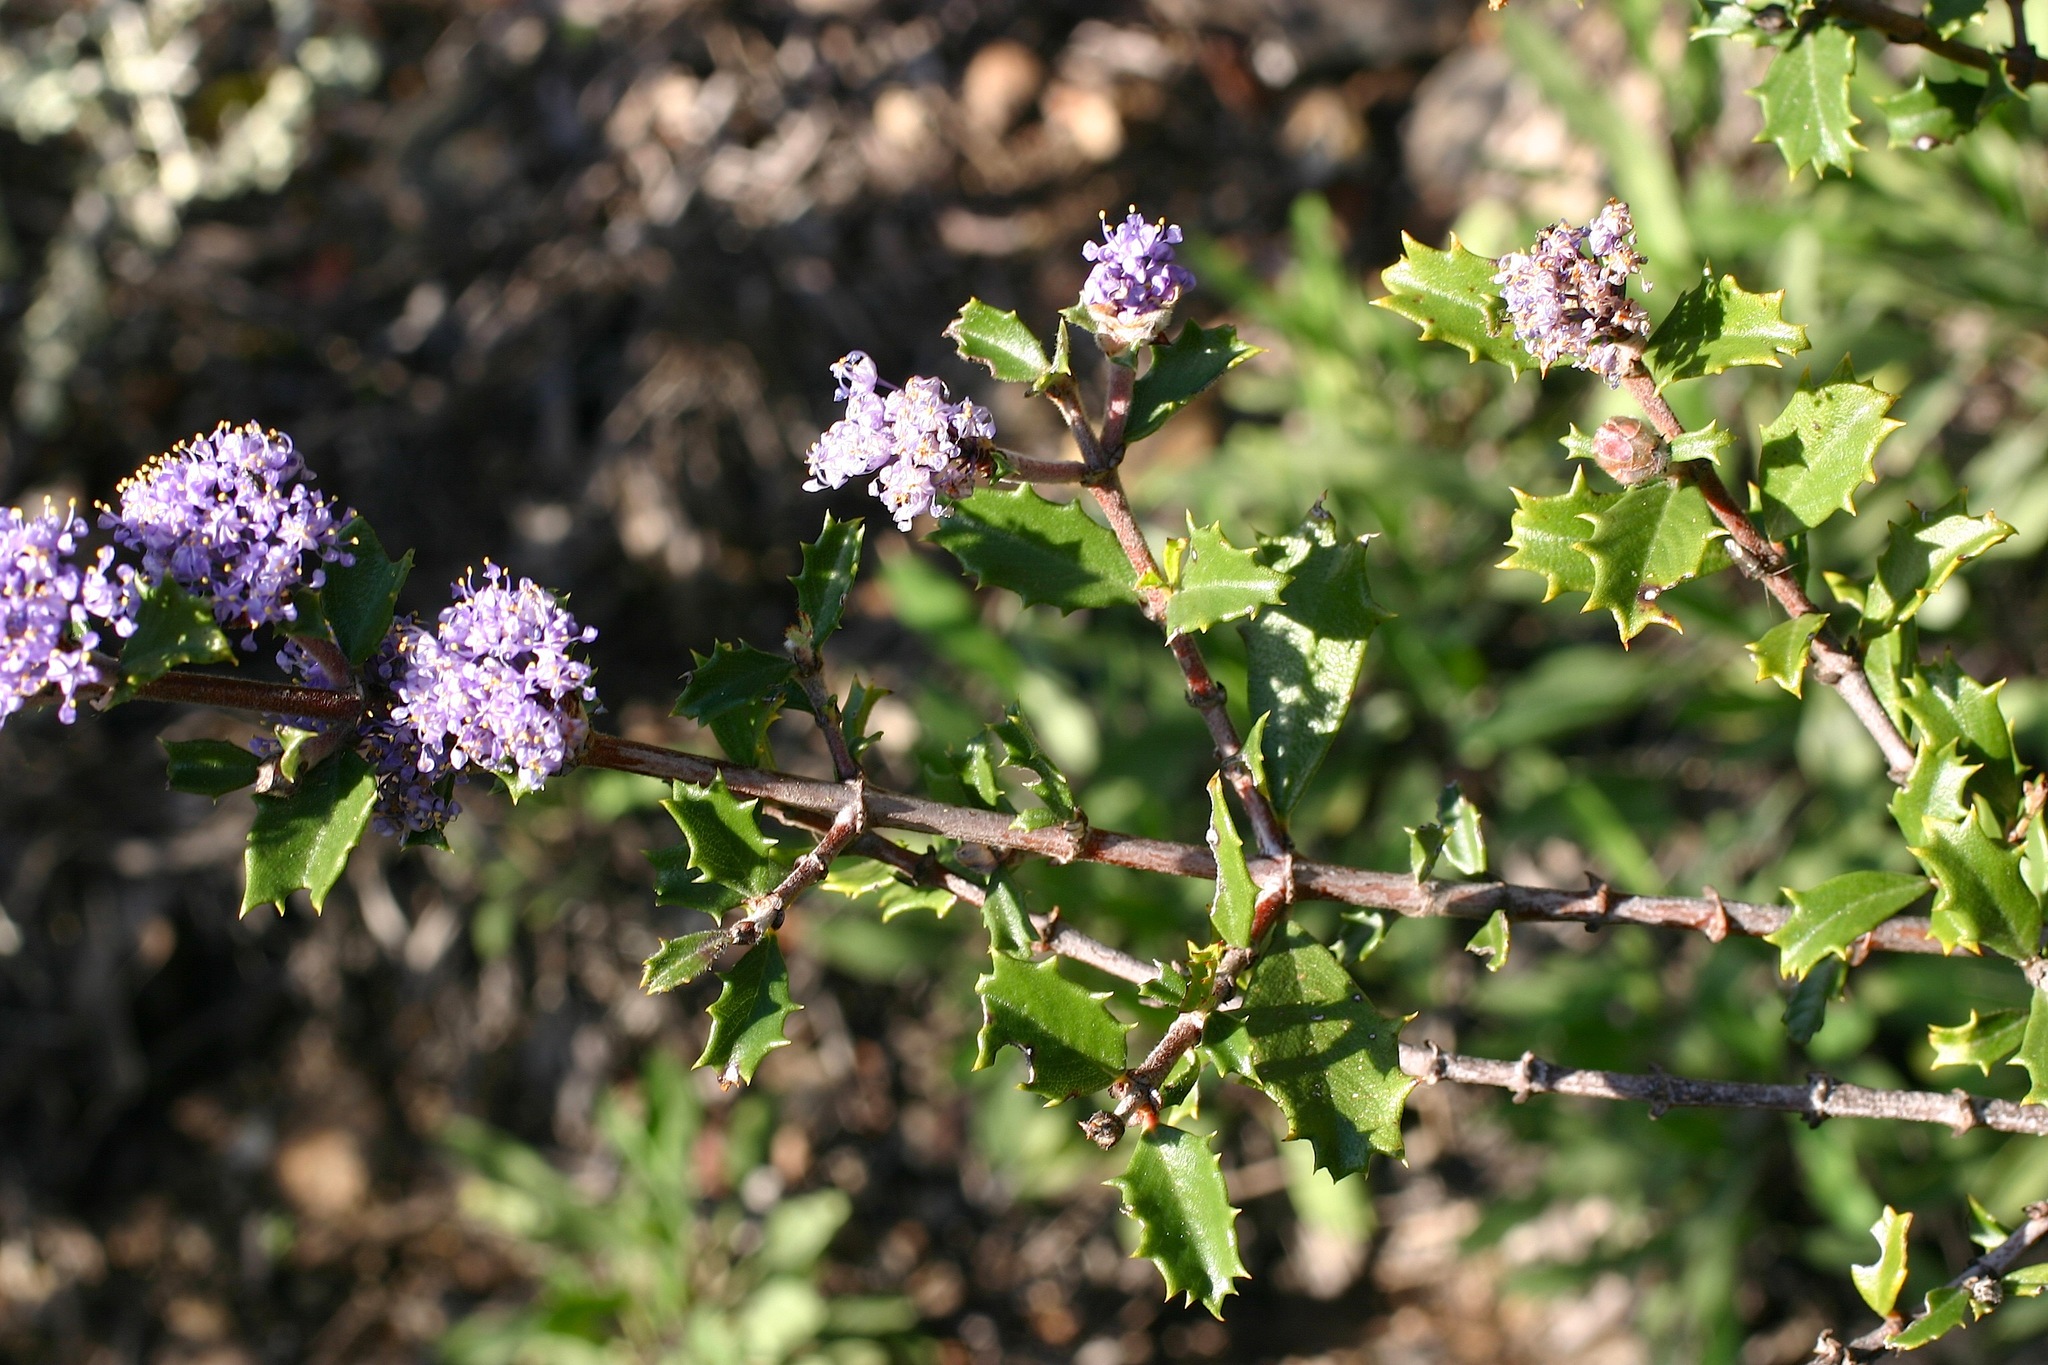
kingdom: Plantae
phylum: Tracheophyta
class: Magnoliopsida
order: Rosales
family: Rhamnaceae
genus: Ceanothus
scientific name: Ceanothus divergens
